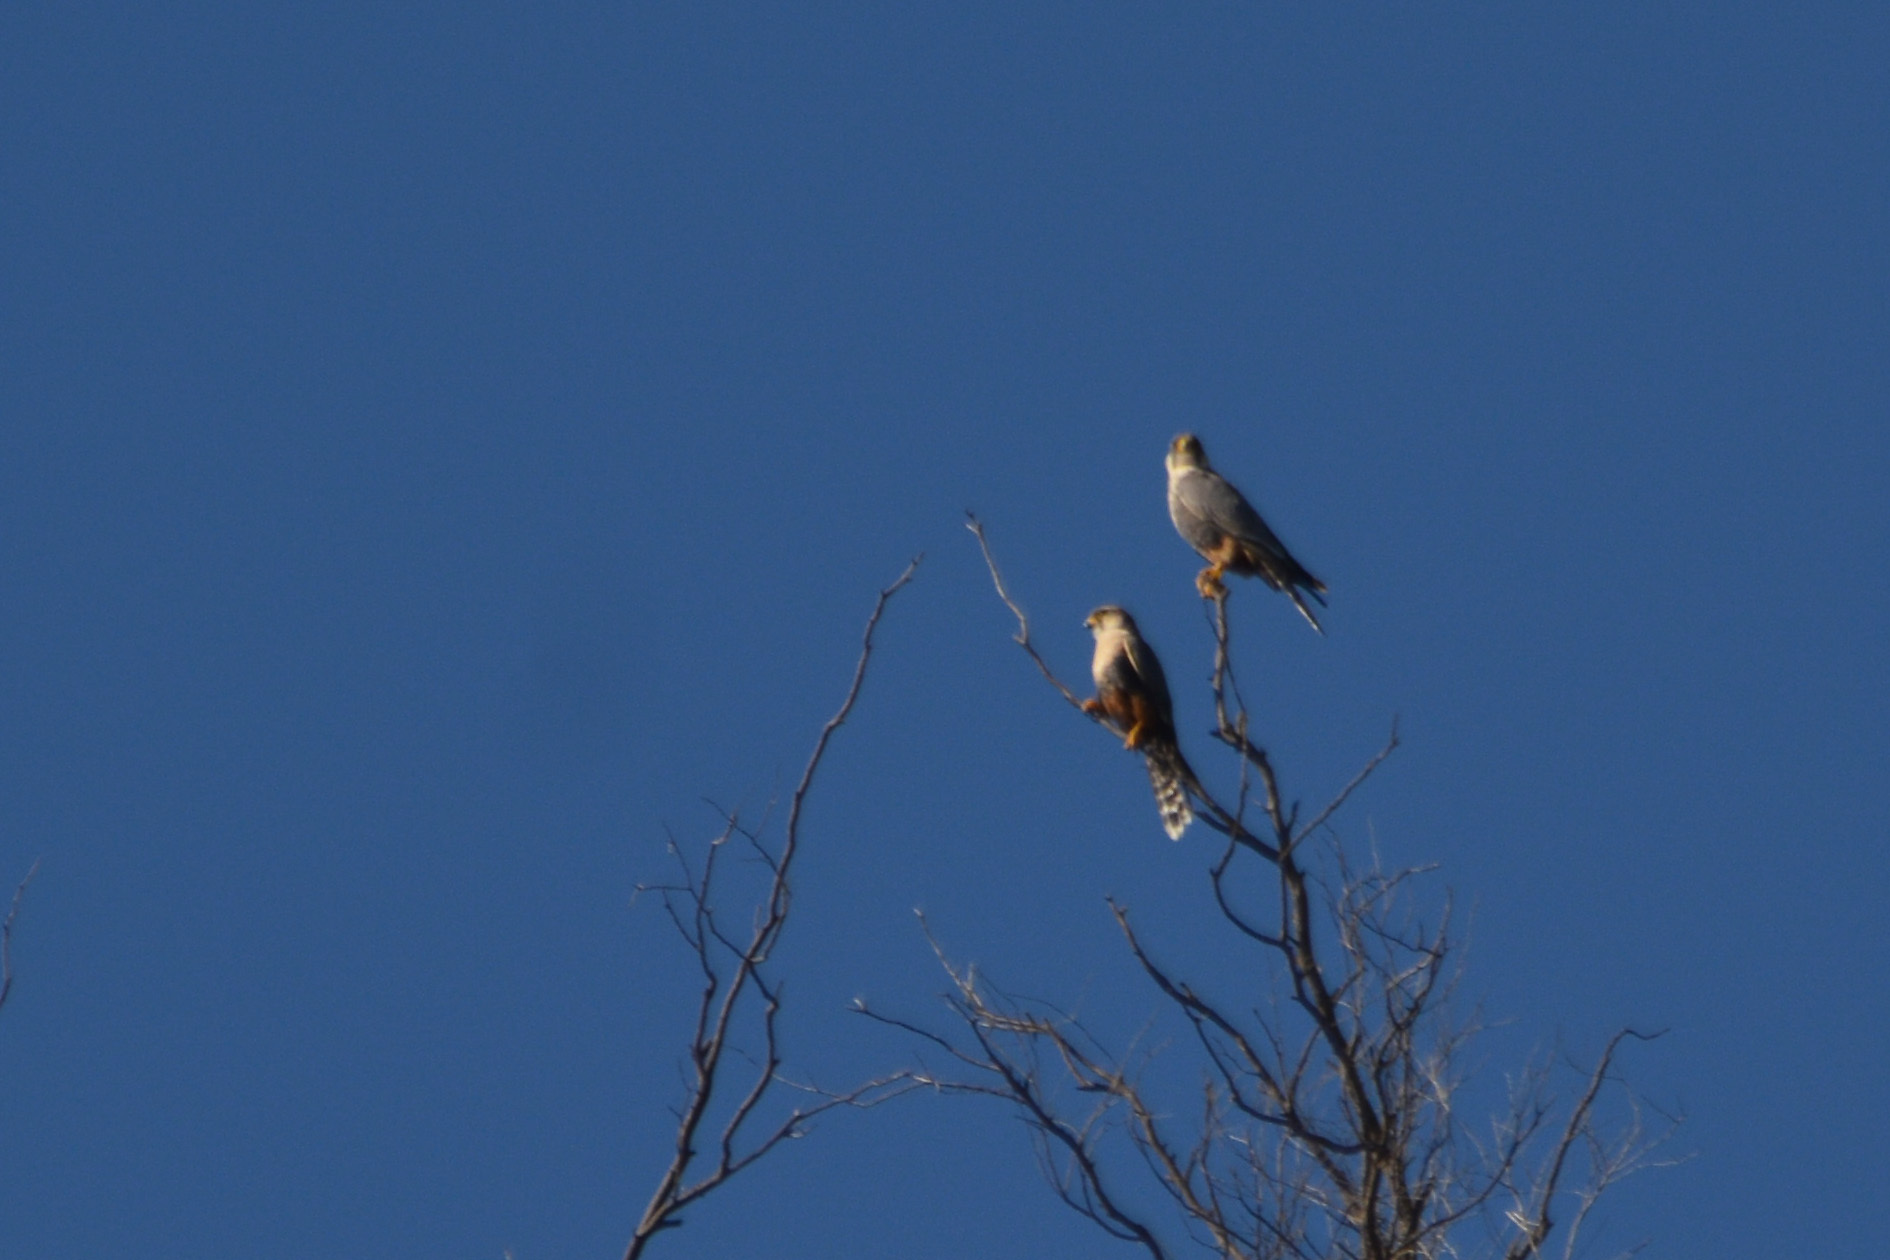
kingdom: Animalia
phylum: Chordata
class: Aves
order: Falconiformes
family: Falconidae
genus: Falco
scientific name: Falco femoralis
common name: Aplomado falcon
